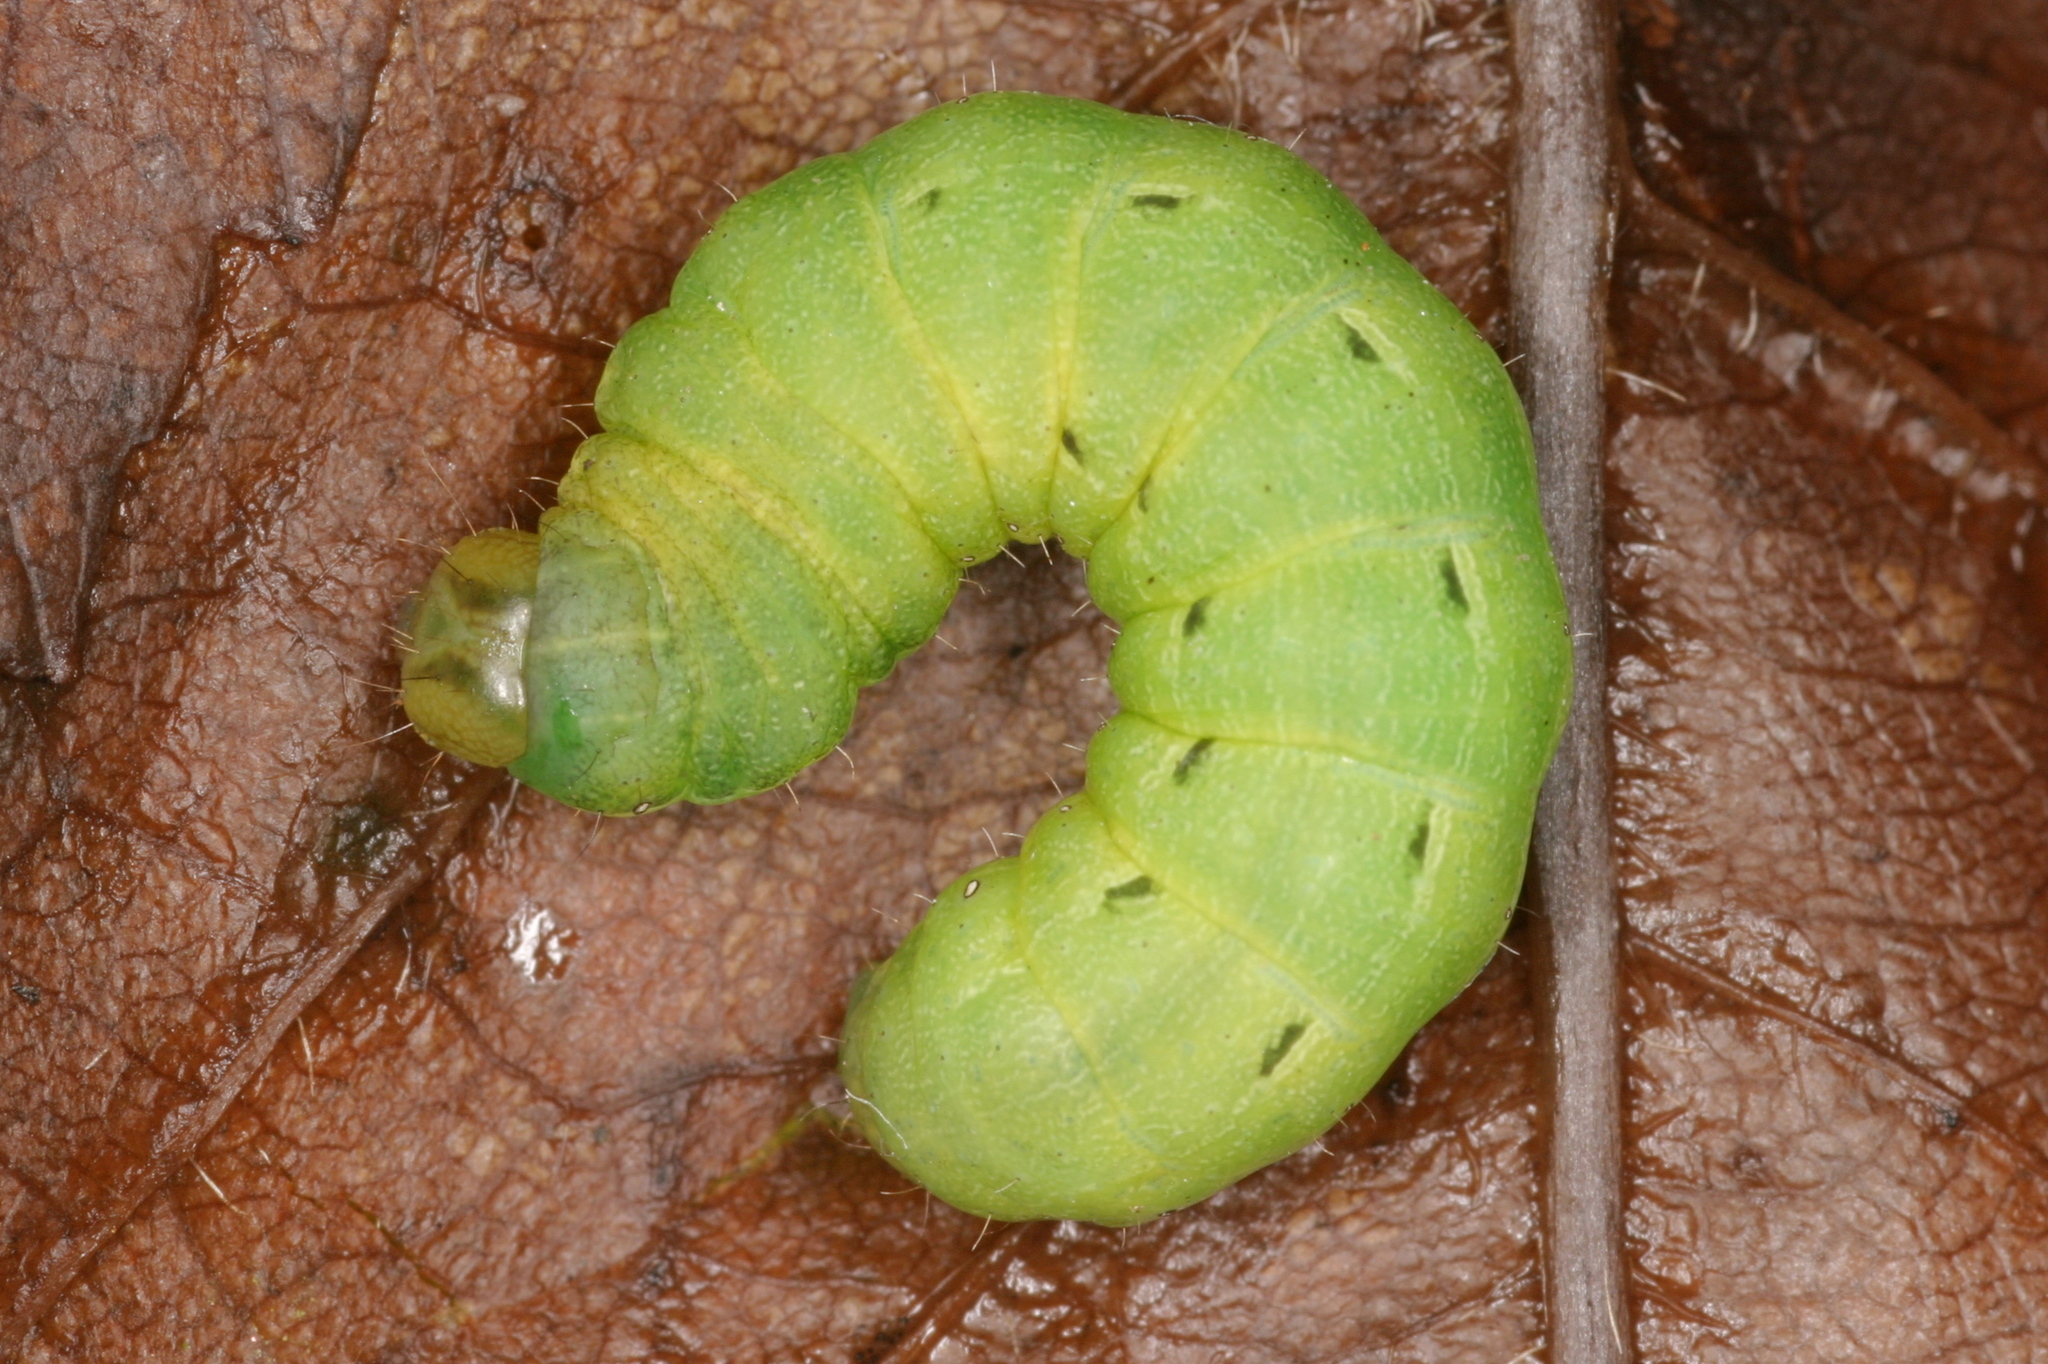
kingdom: Animalia
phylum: Arthropoda
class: Insecta
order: Lepidoptera
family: Noctuidae
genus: Noctua
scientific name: Noctua pronuba
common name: Large yellow underwing
